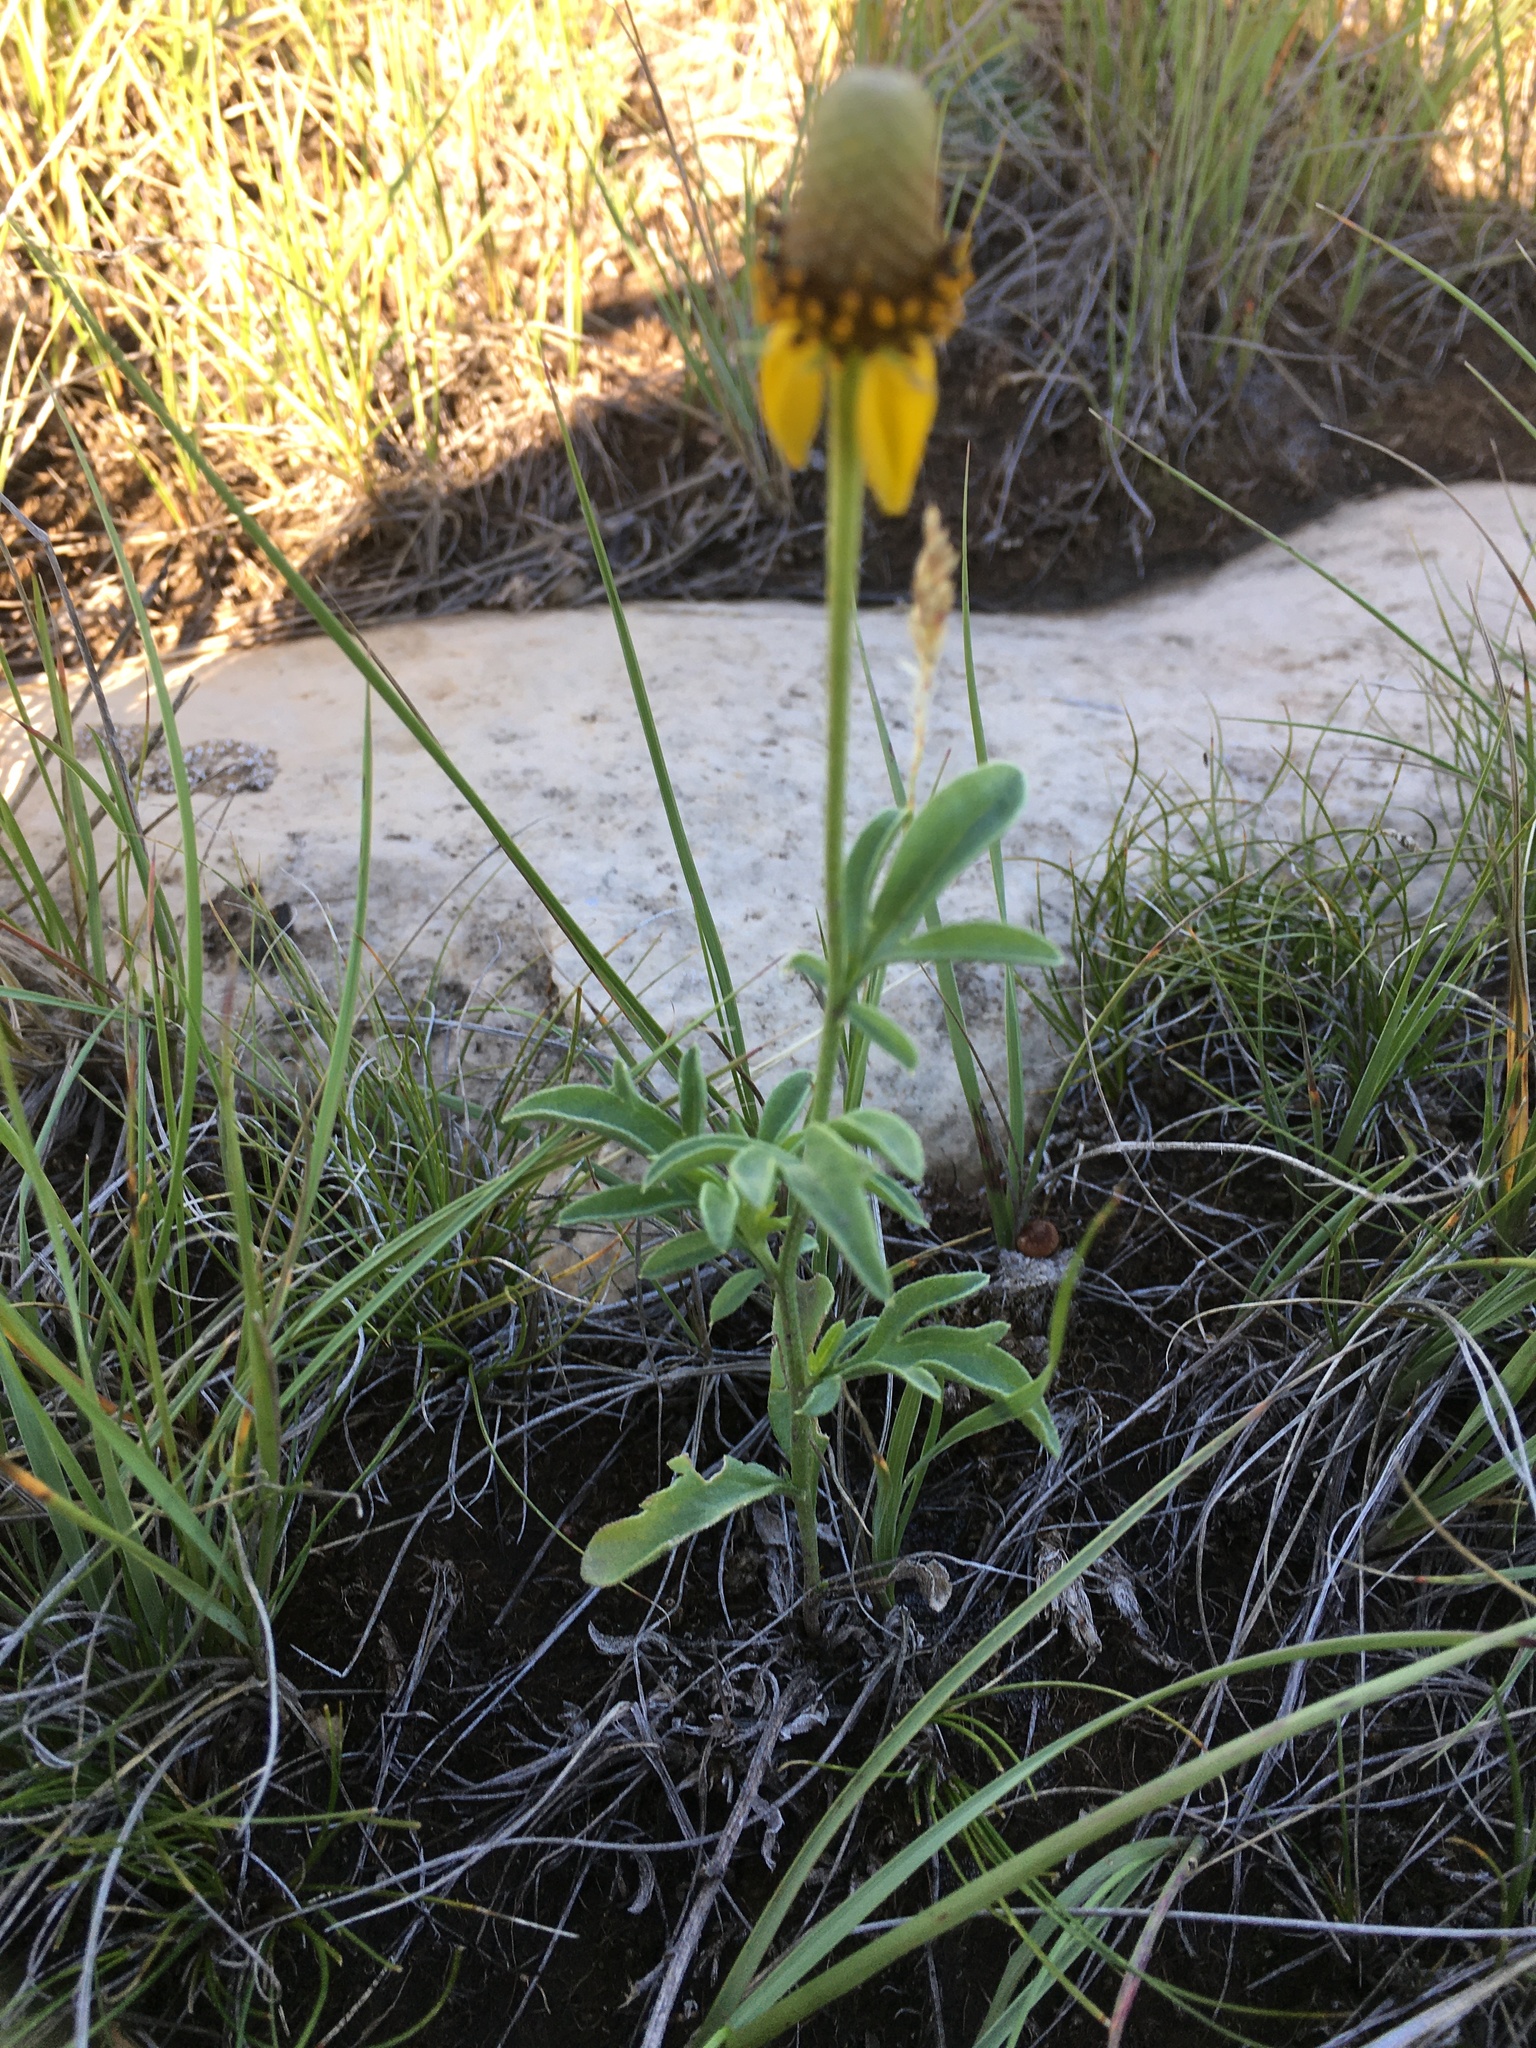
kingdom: Plantae
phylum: Tracheophyta
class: Magnoliopsida
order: Asterales
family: Asteraceae
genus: Ratibida
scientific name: Ratibida columnifera
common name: Prairie coneflower
